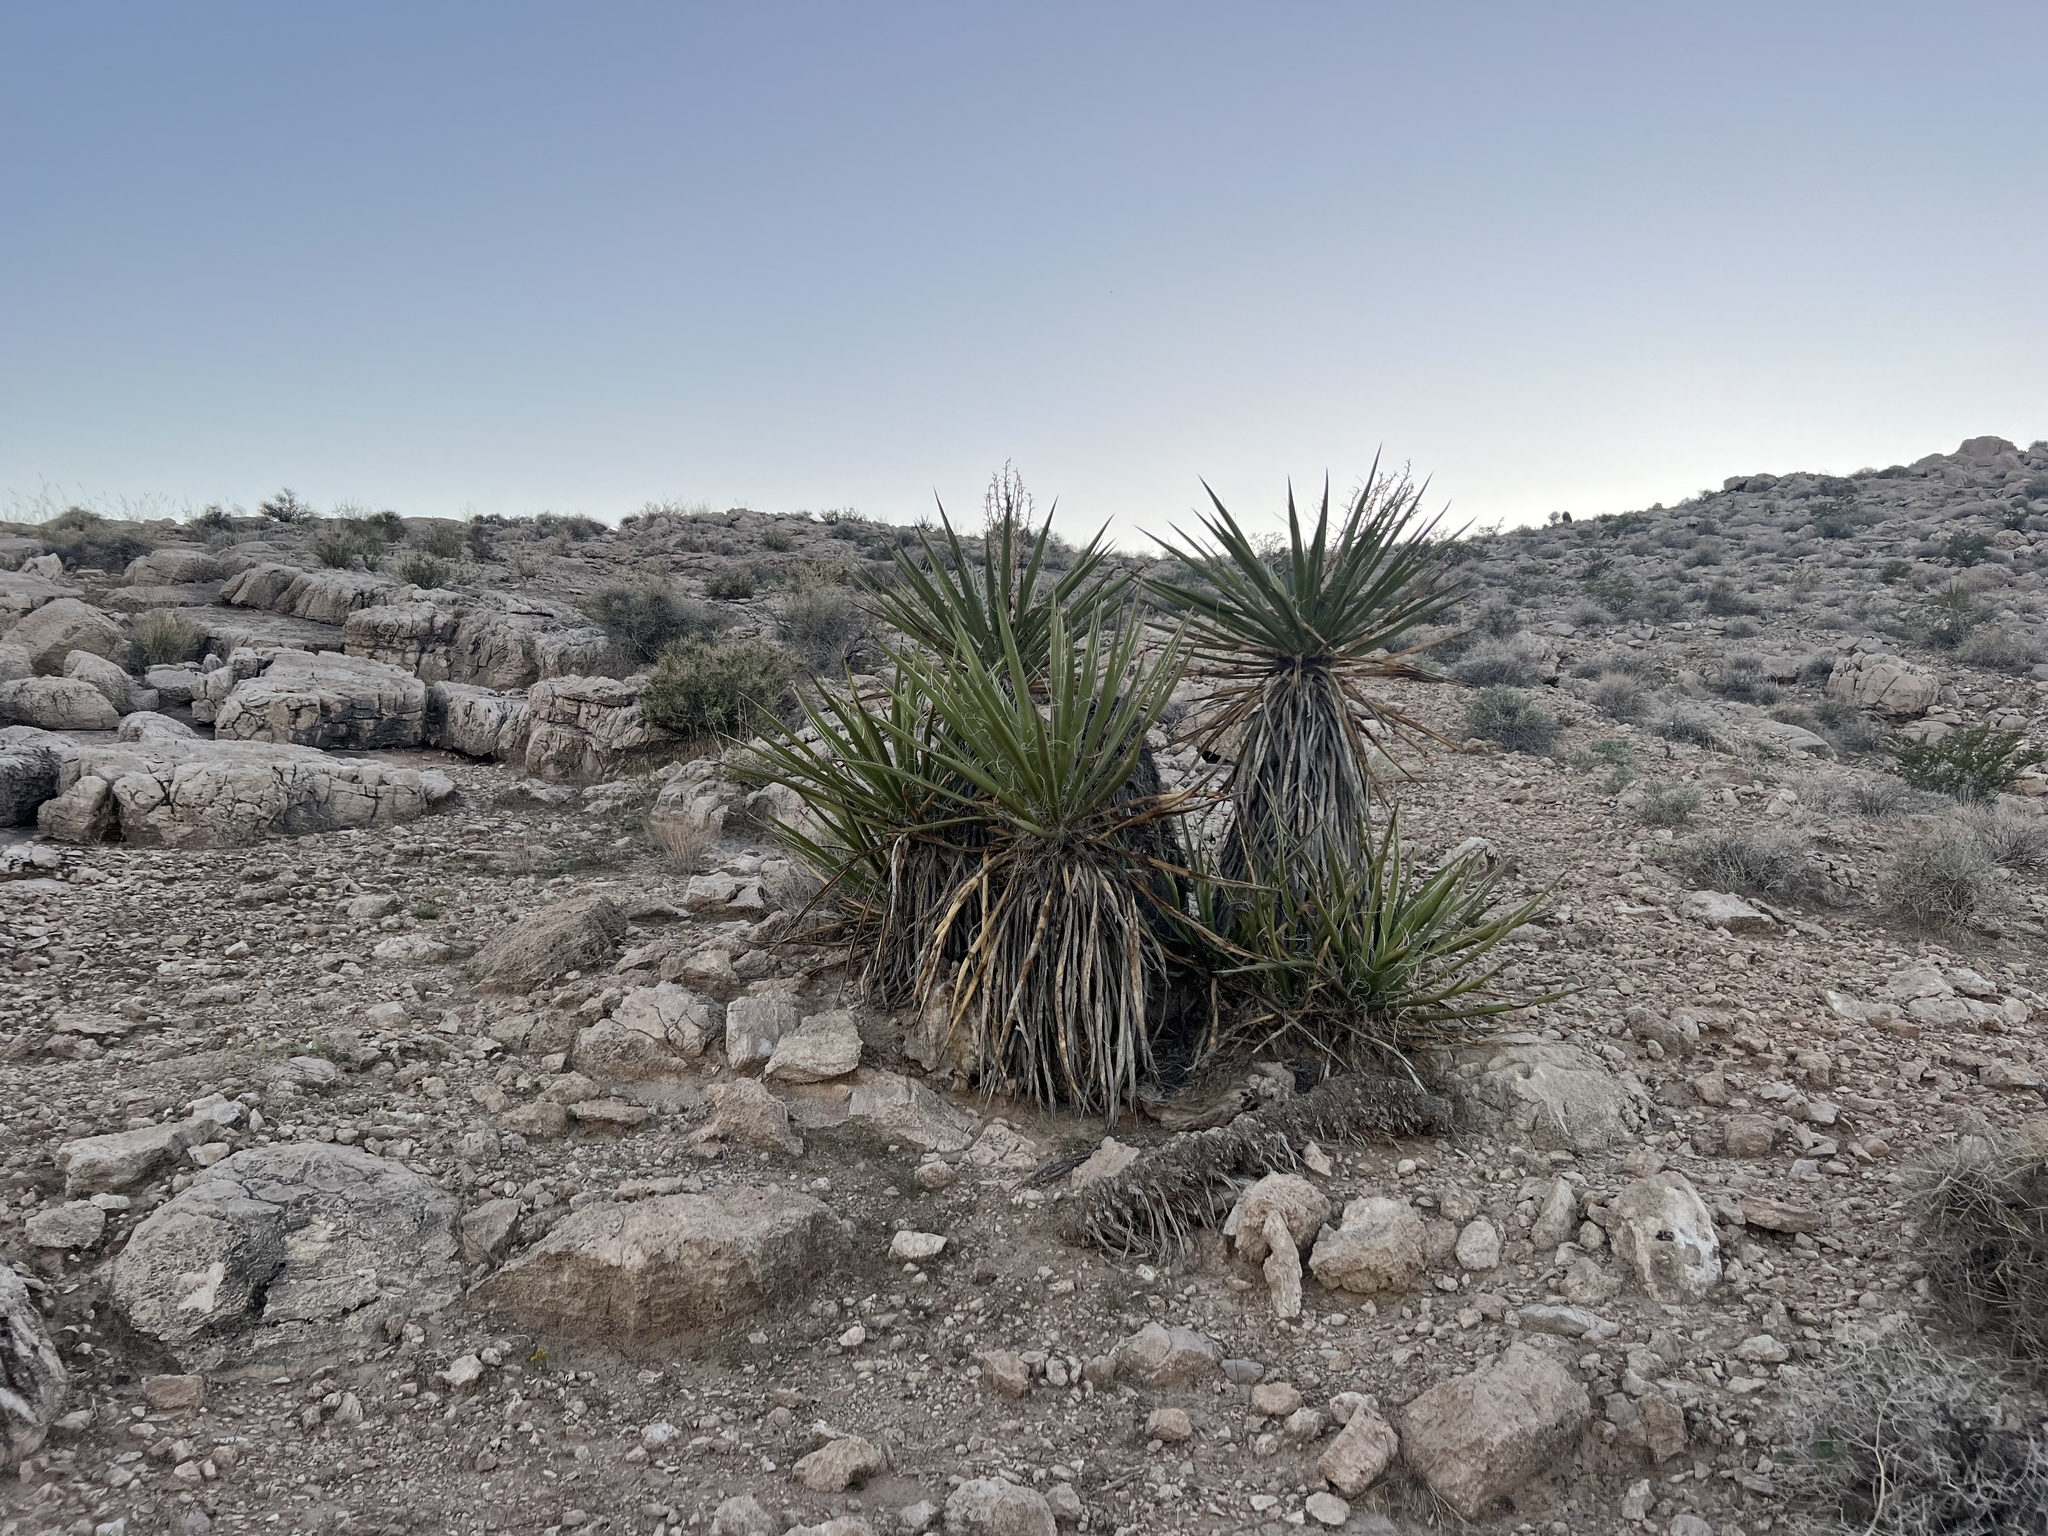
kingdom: Plantae
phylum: Tracheophyta
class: Liliopsida
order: Asparagales
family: Asparagaceae
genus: Yucca
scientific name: Yucca schidigera
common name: Mojave yucca
